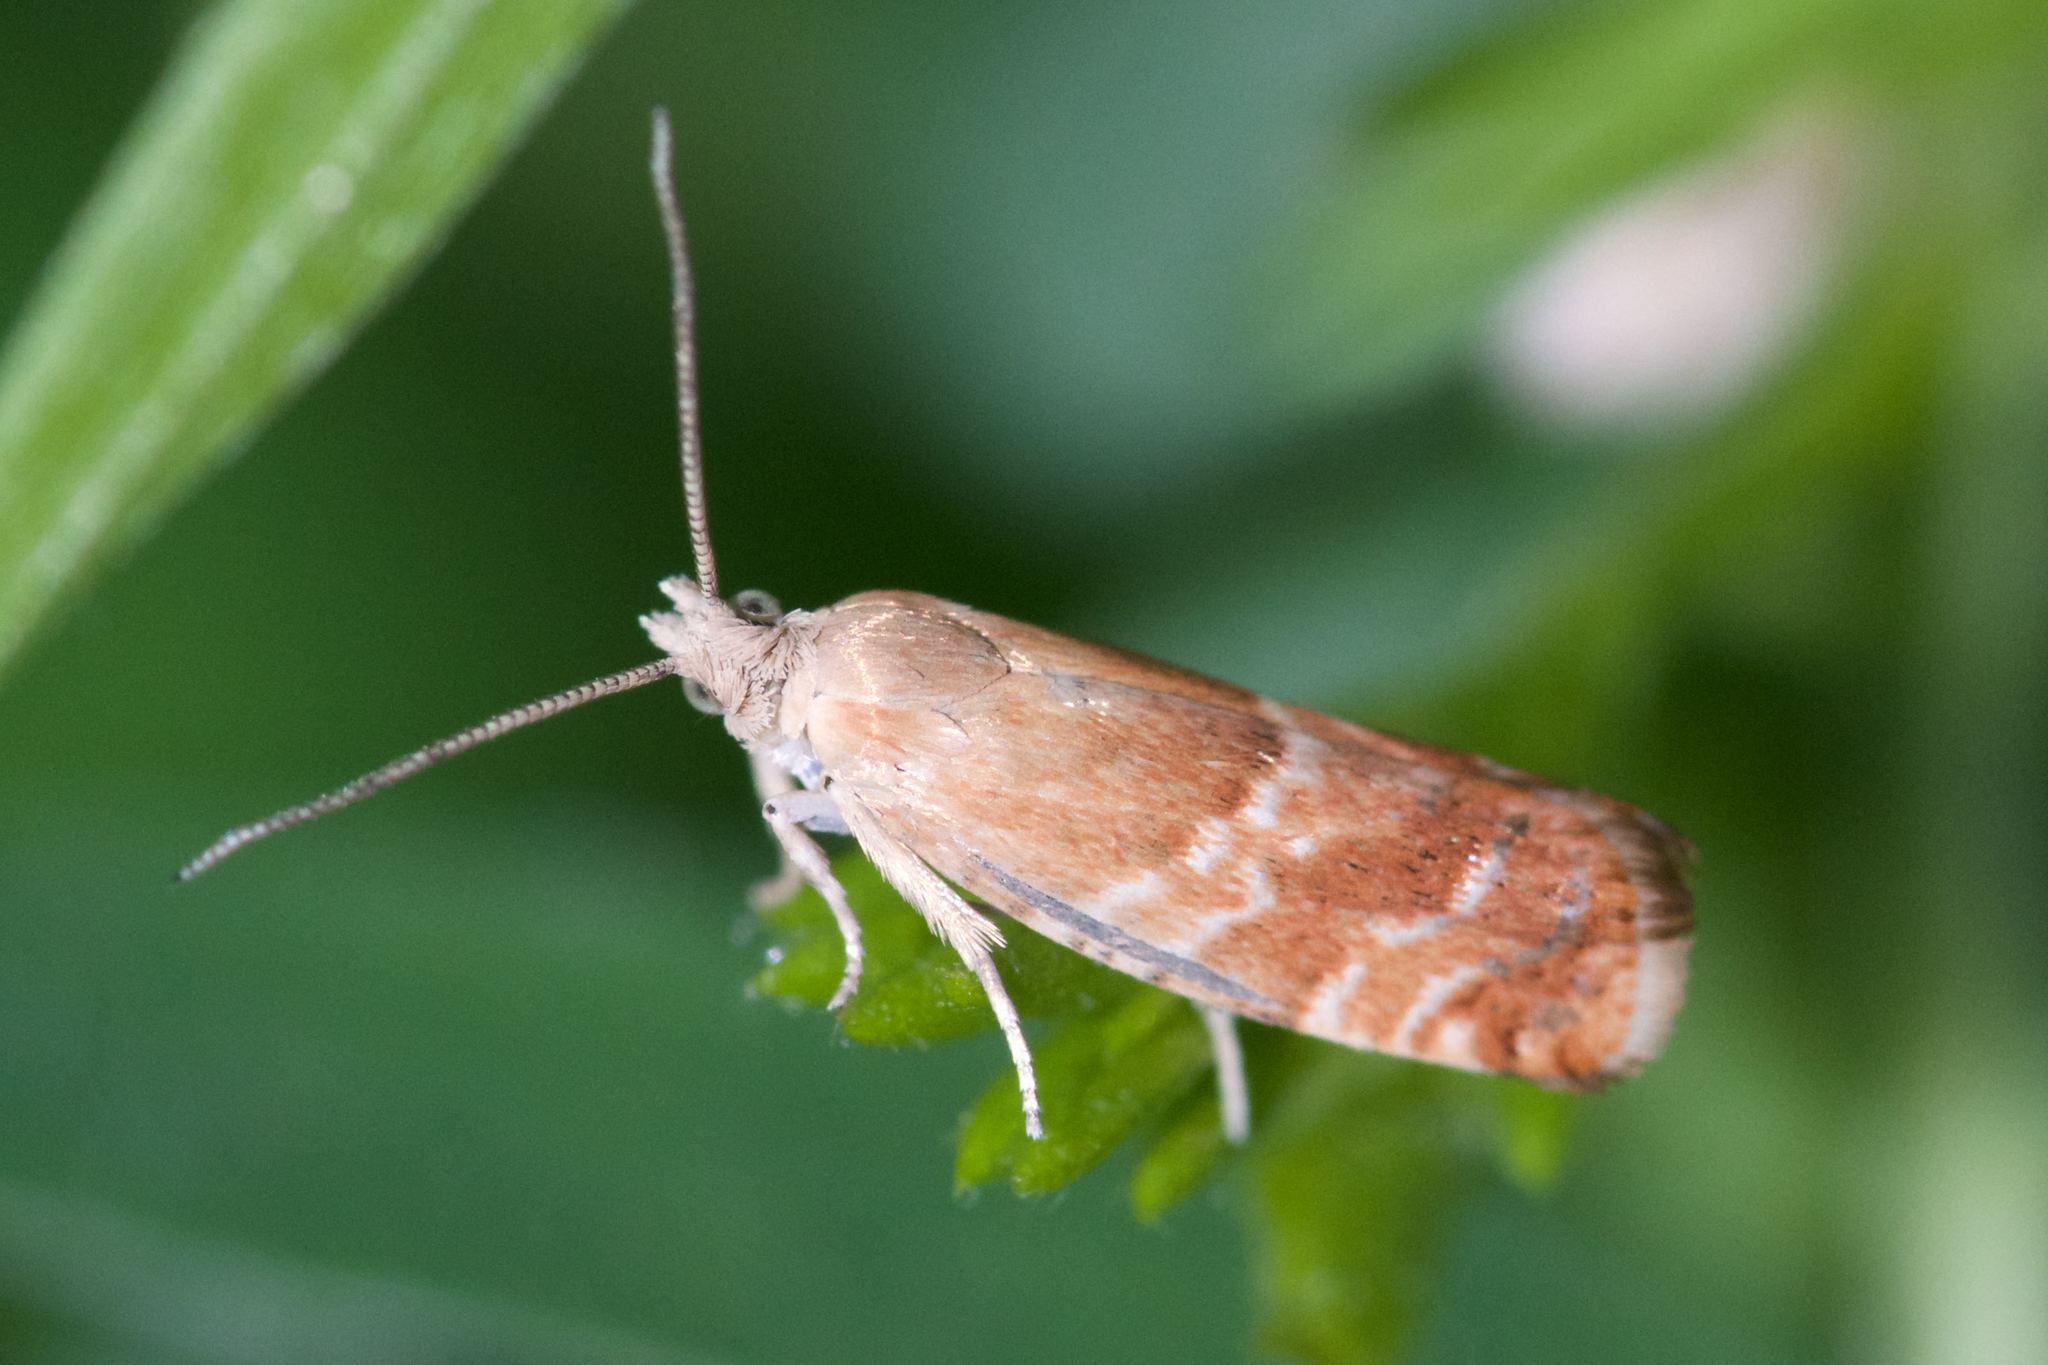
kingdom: Animalia
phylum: Arthropoda
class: Insecta
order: Lepidoptera
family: Tortricidae
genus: Epinotia
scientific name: Epinotia cruciana
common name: Willow tortrix
